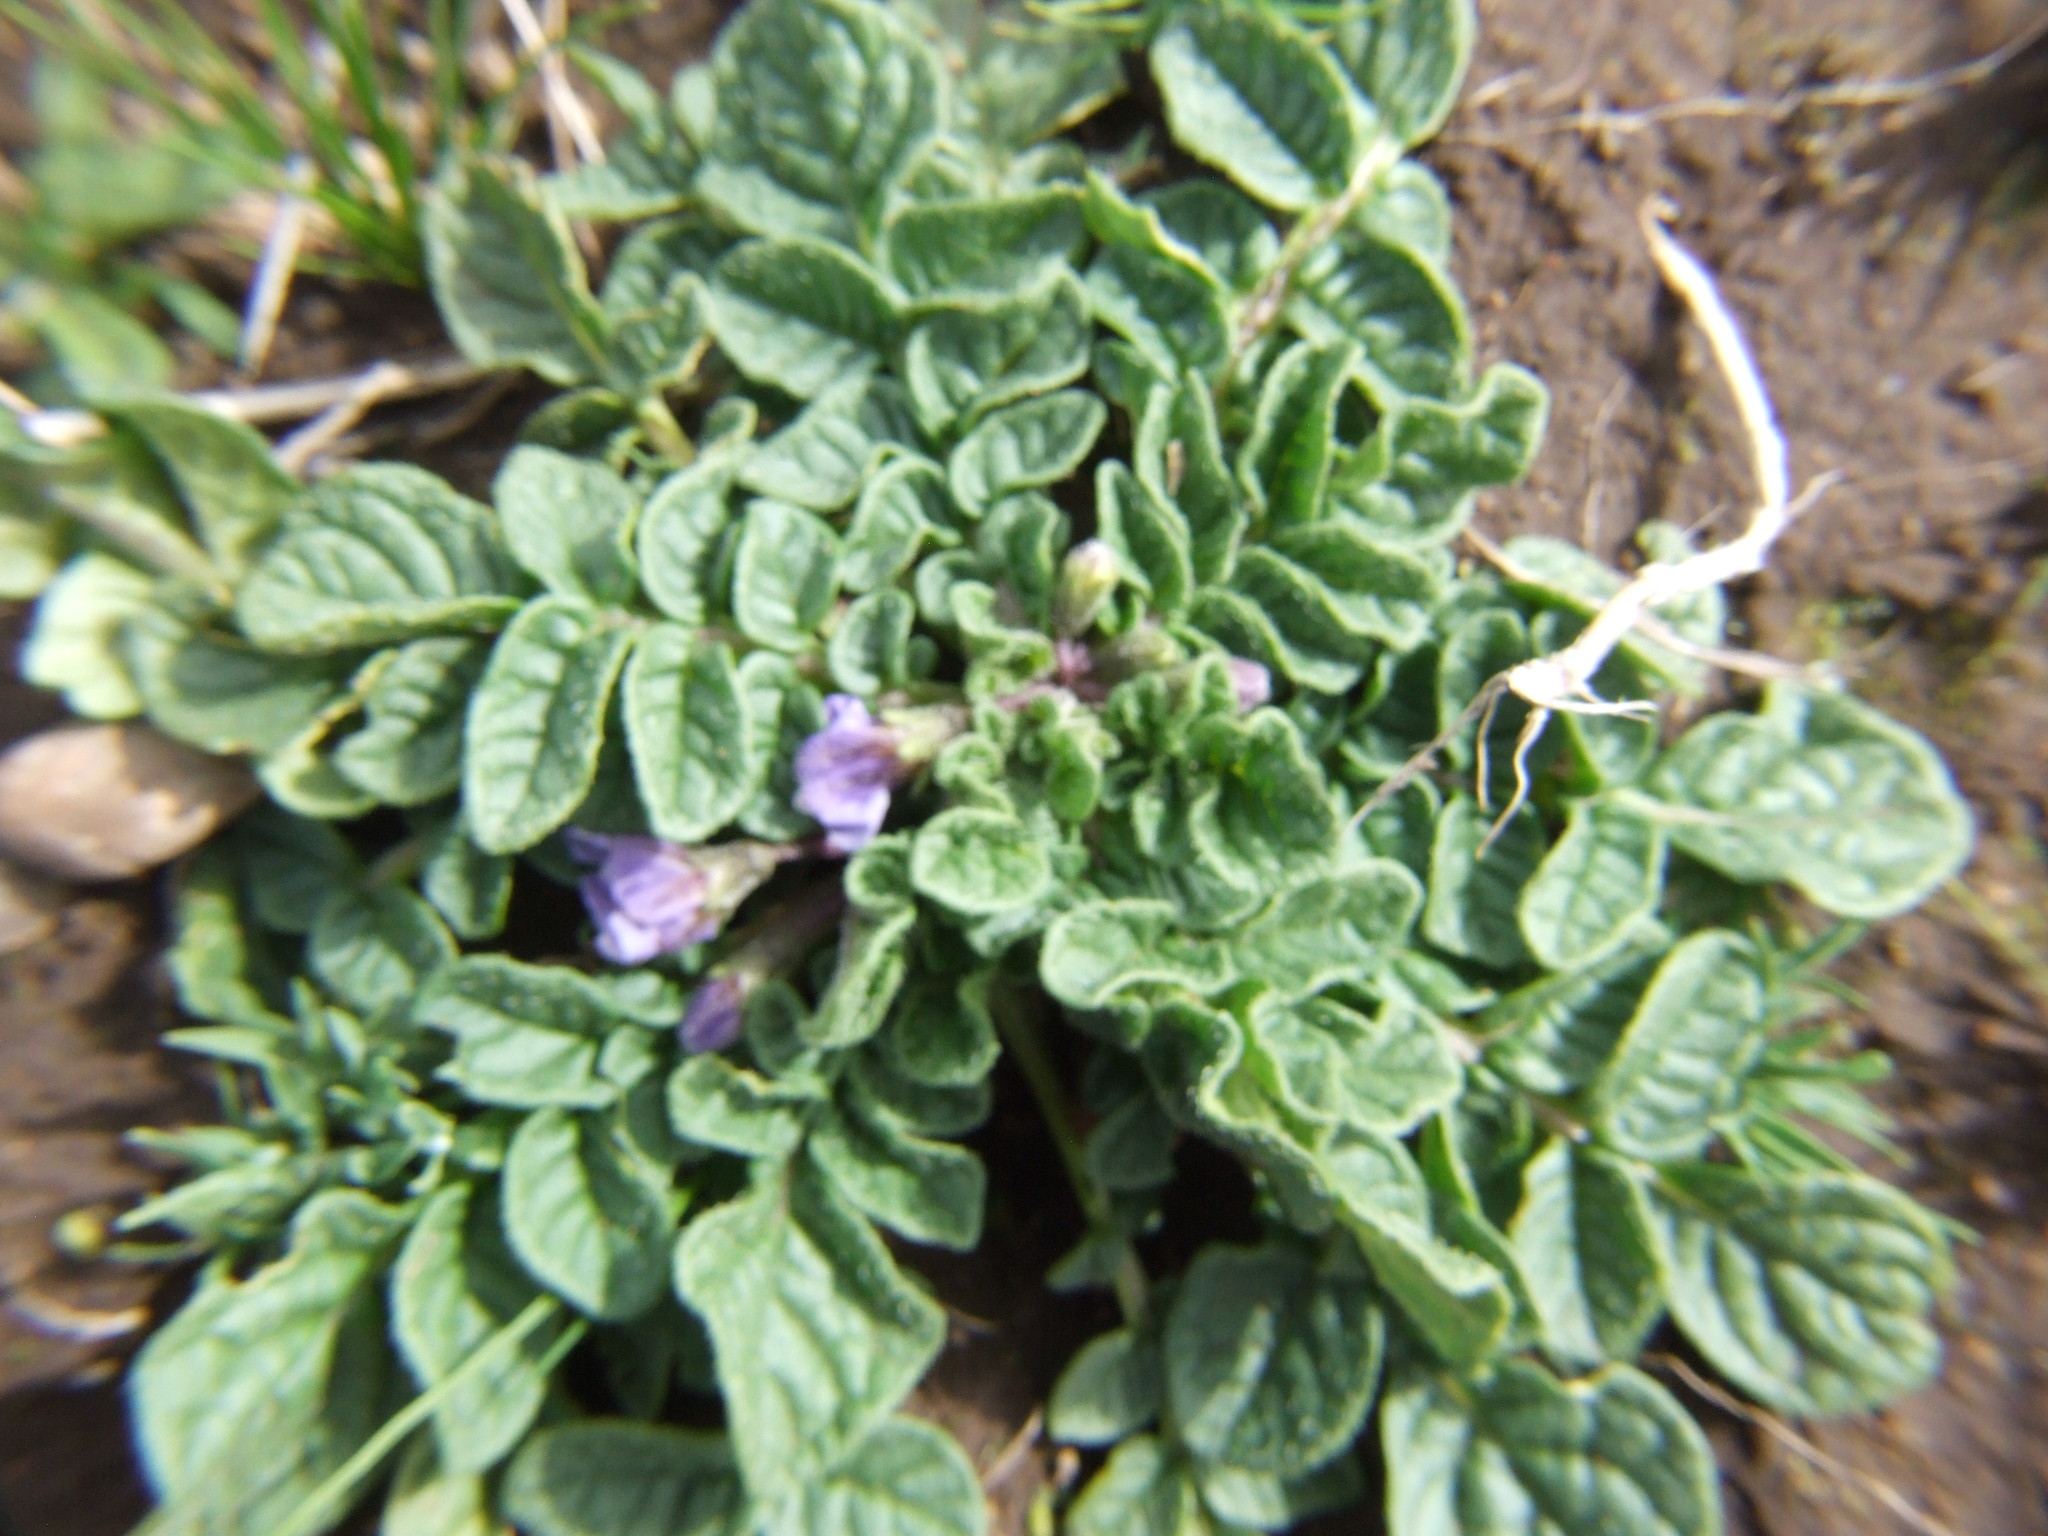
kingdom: Plantae
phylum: Tracheophyta
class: Magnoliopsida
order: Solanales
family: Solanaceae
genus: Solanum
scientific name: Solanum acaule
